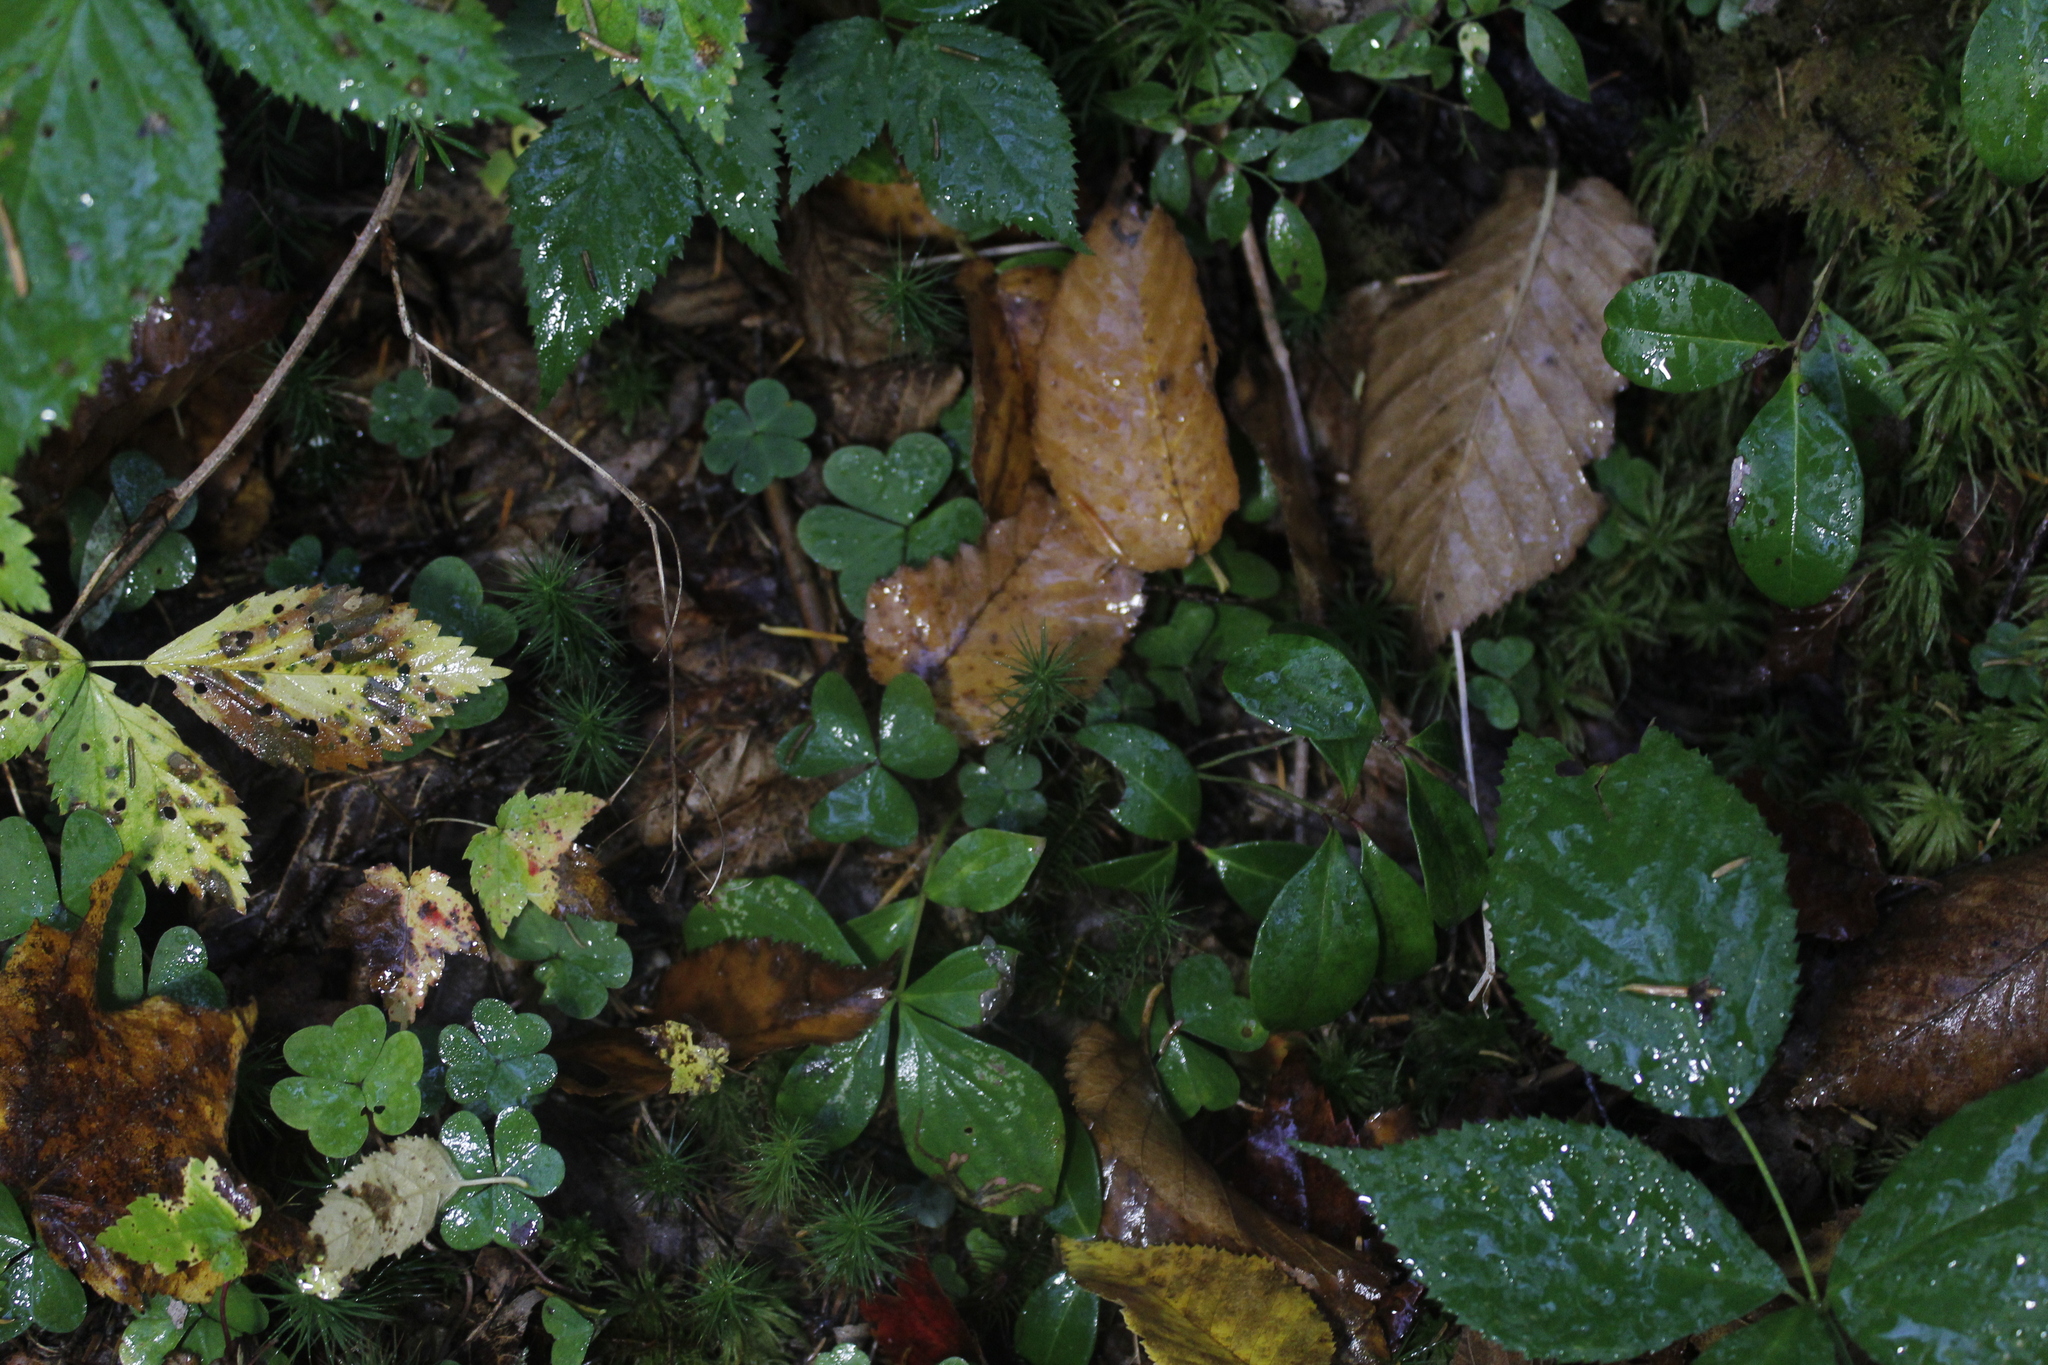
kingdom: Plantae
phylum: Tracheophyta
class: Magnoliopsida
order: Oxalidales
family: Oxalidaceae
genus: Oxalis
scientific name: Oxalis montana
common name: American wood-sorrel
